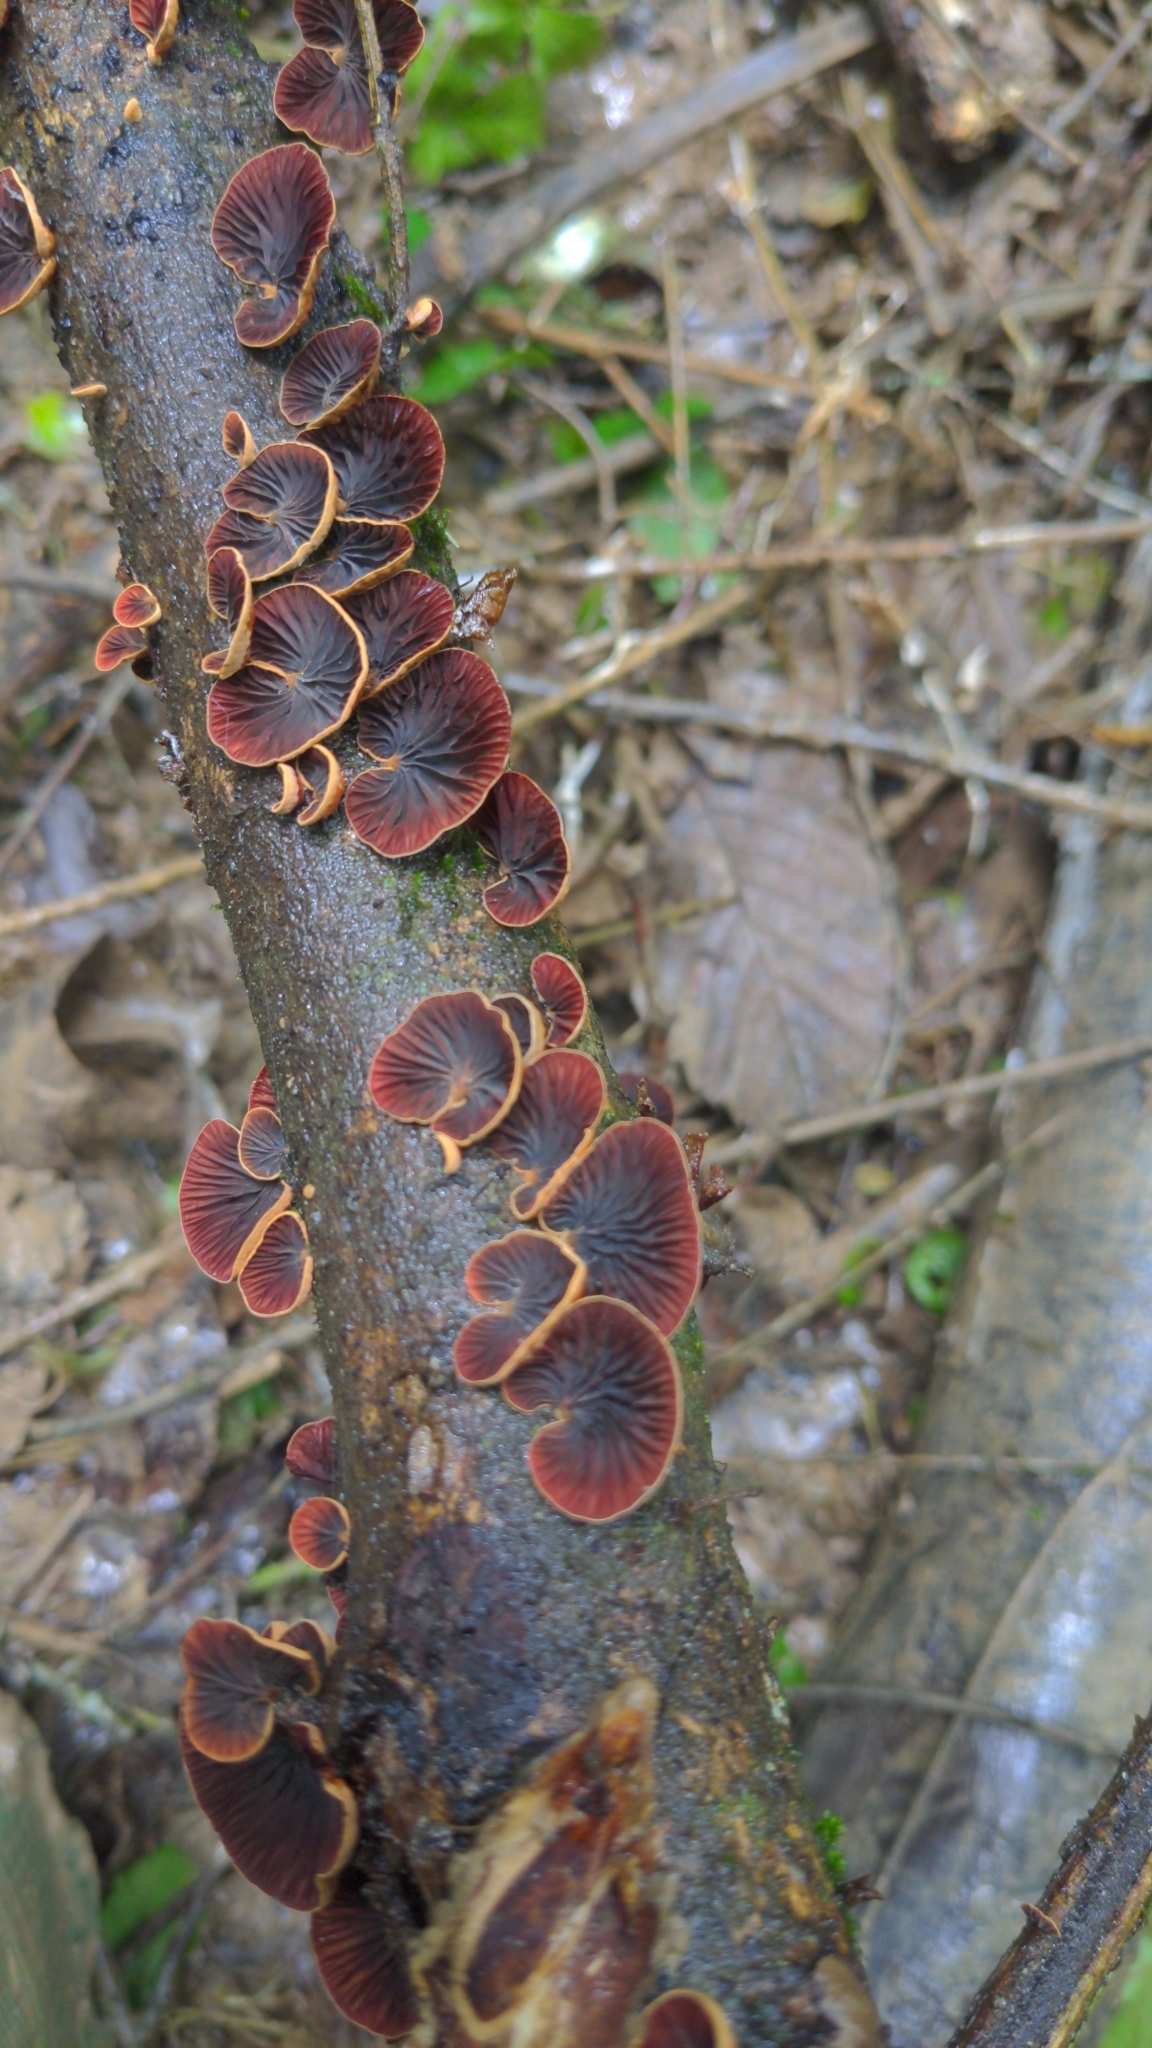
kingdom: Fungi
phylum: Basidiomycota
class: Agaricomycetes
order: Agaricales
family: Omphalotaceae
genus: Anthracophyllum
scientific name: Anthracophyllum lateritium
